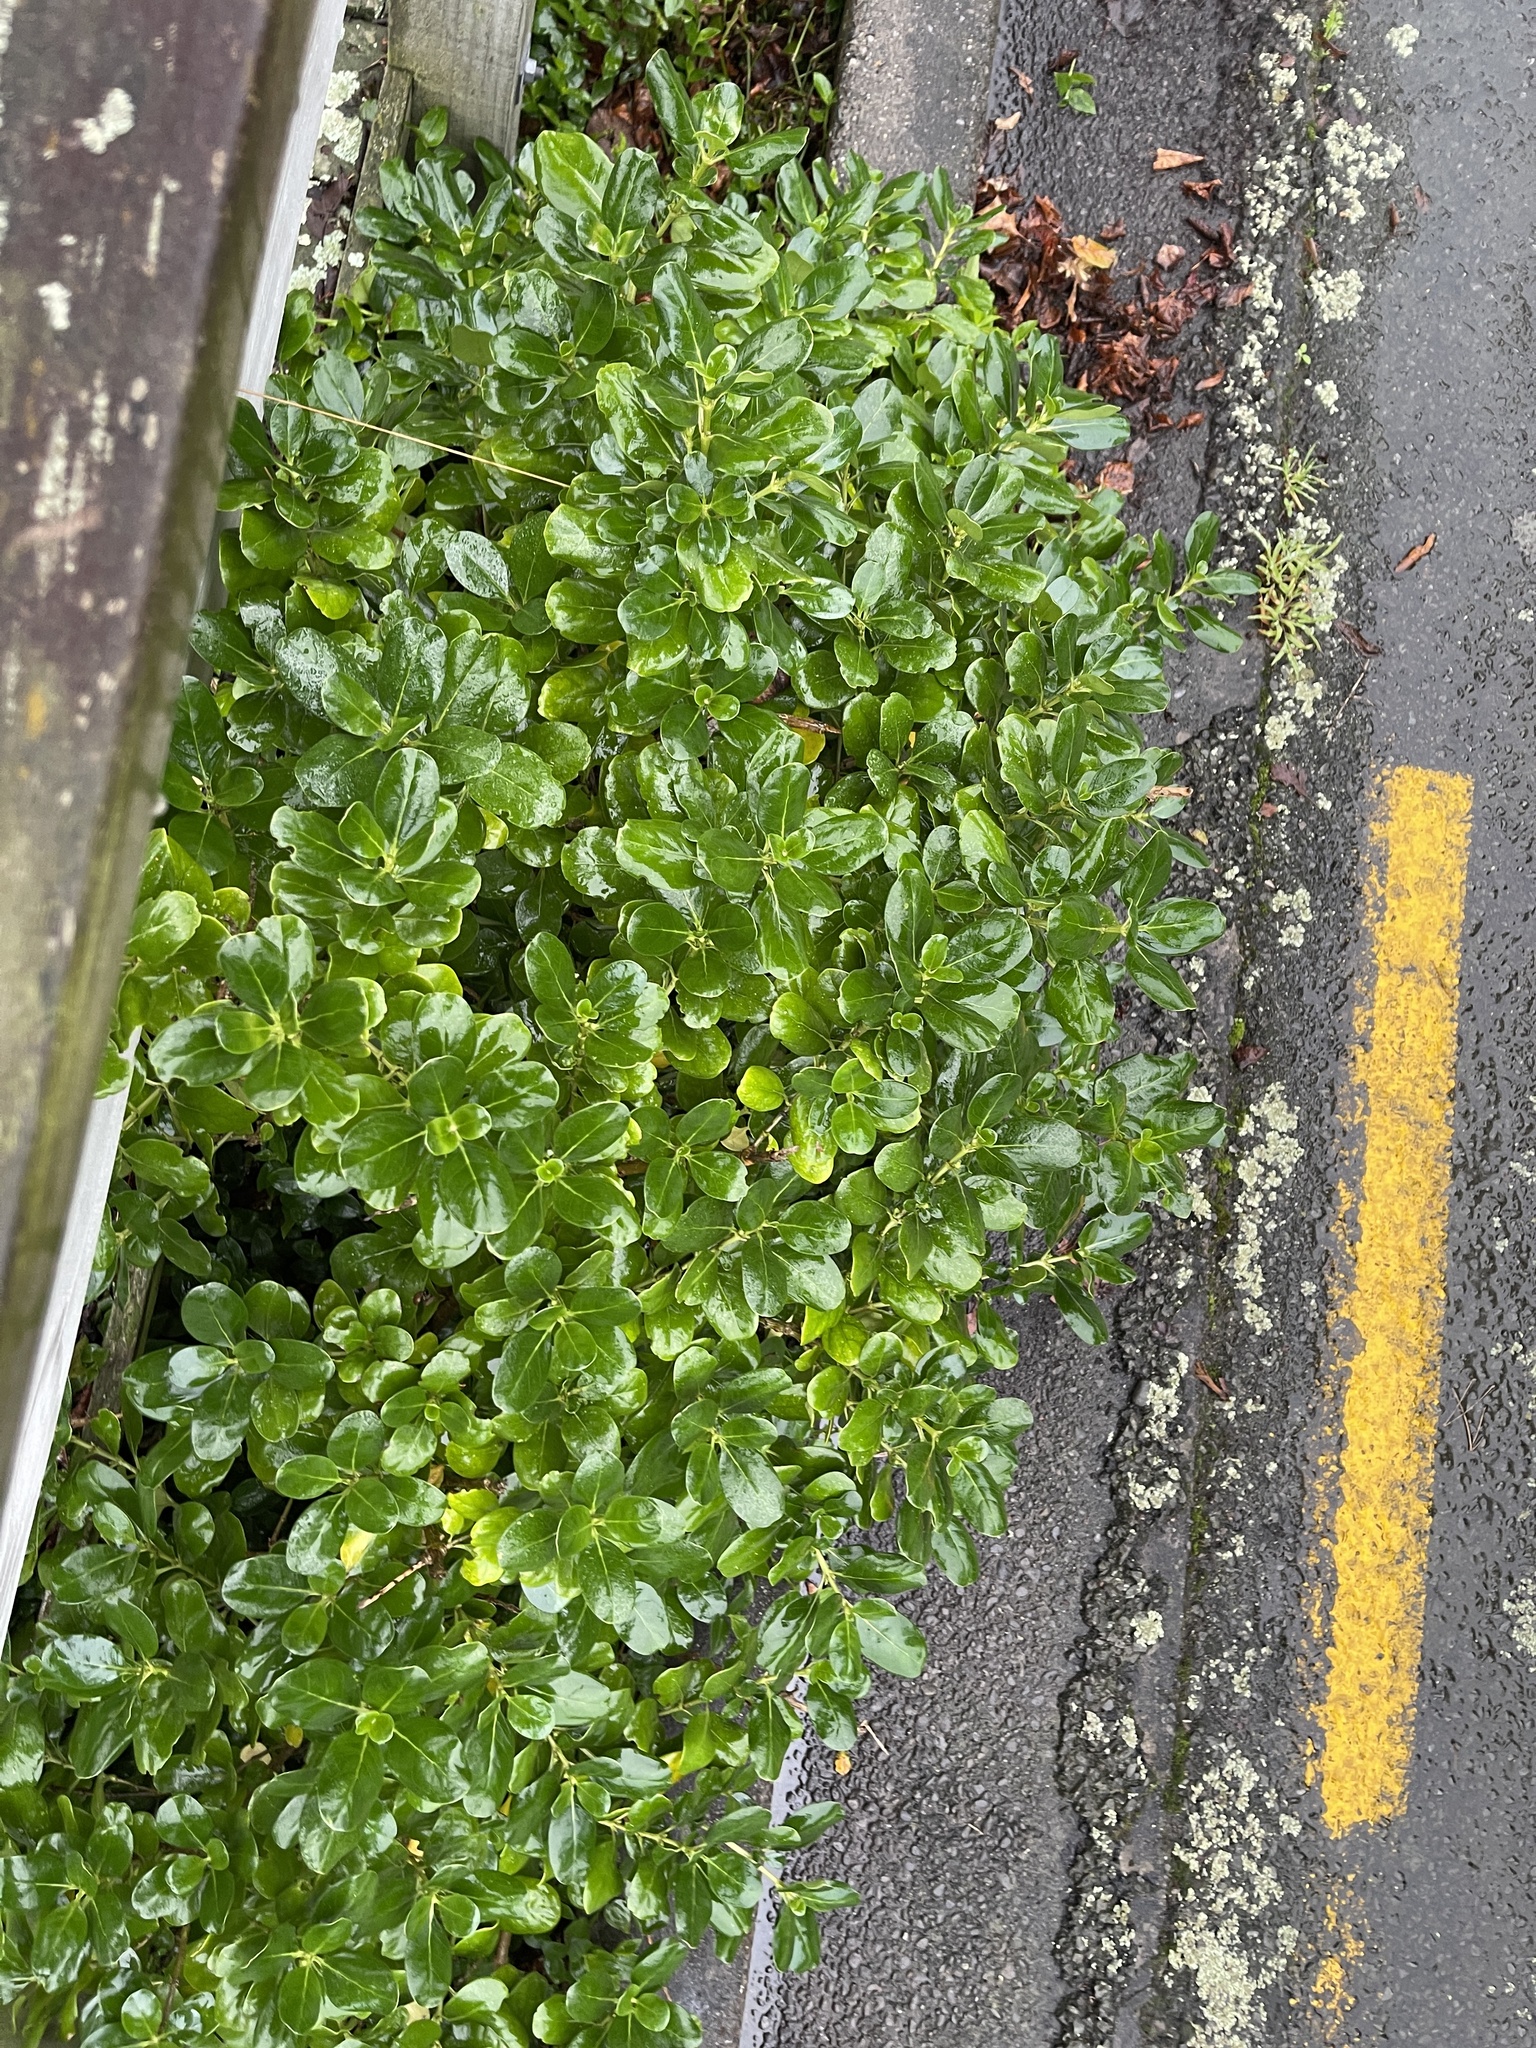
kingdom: Plantae
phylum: Tracheophyta
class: Magnoliopsida
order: Gentianales
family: Rubiaceae
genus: Coprosma
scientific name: Coprosma repens
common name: Tree bedstraw
